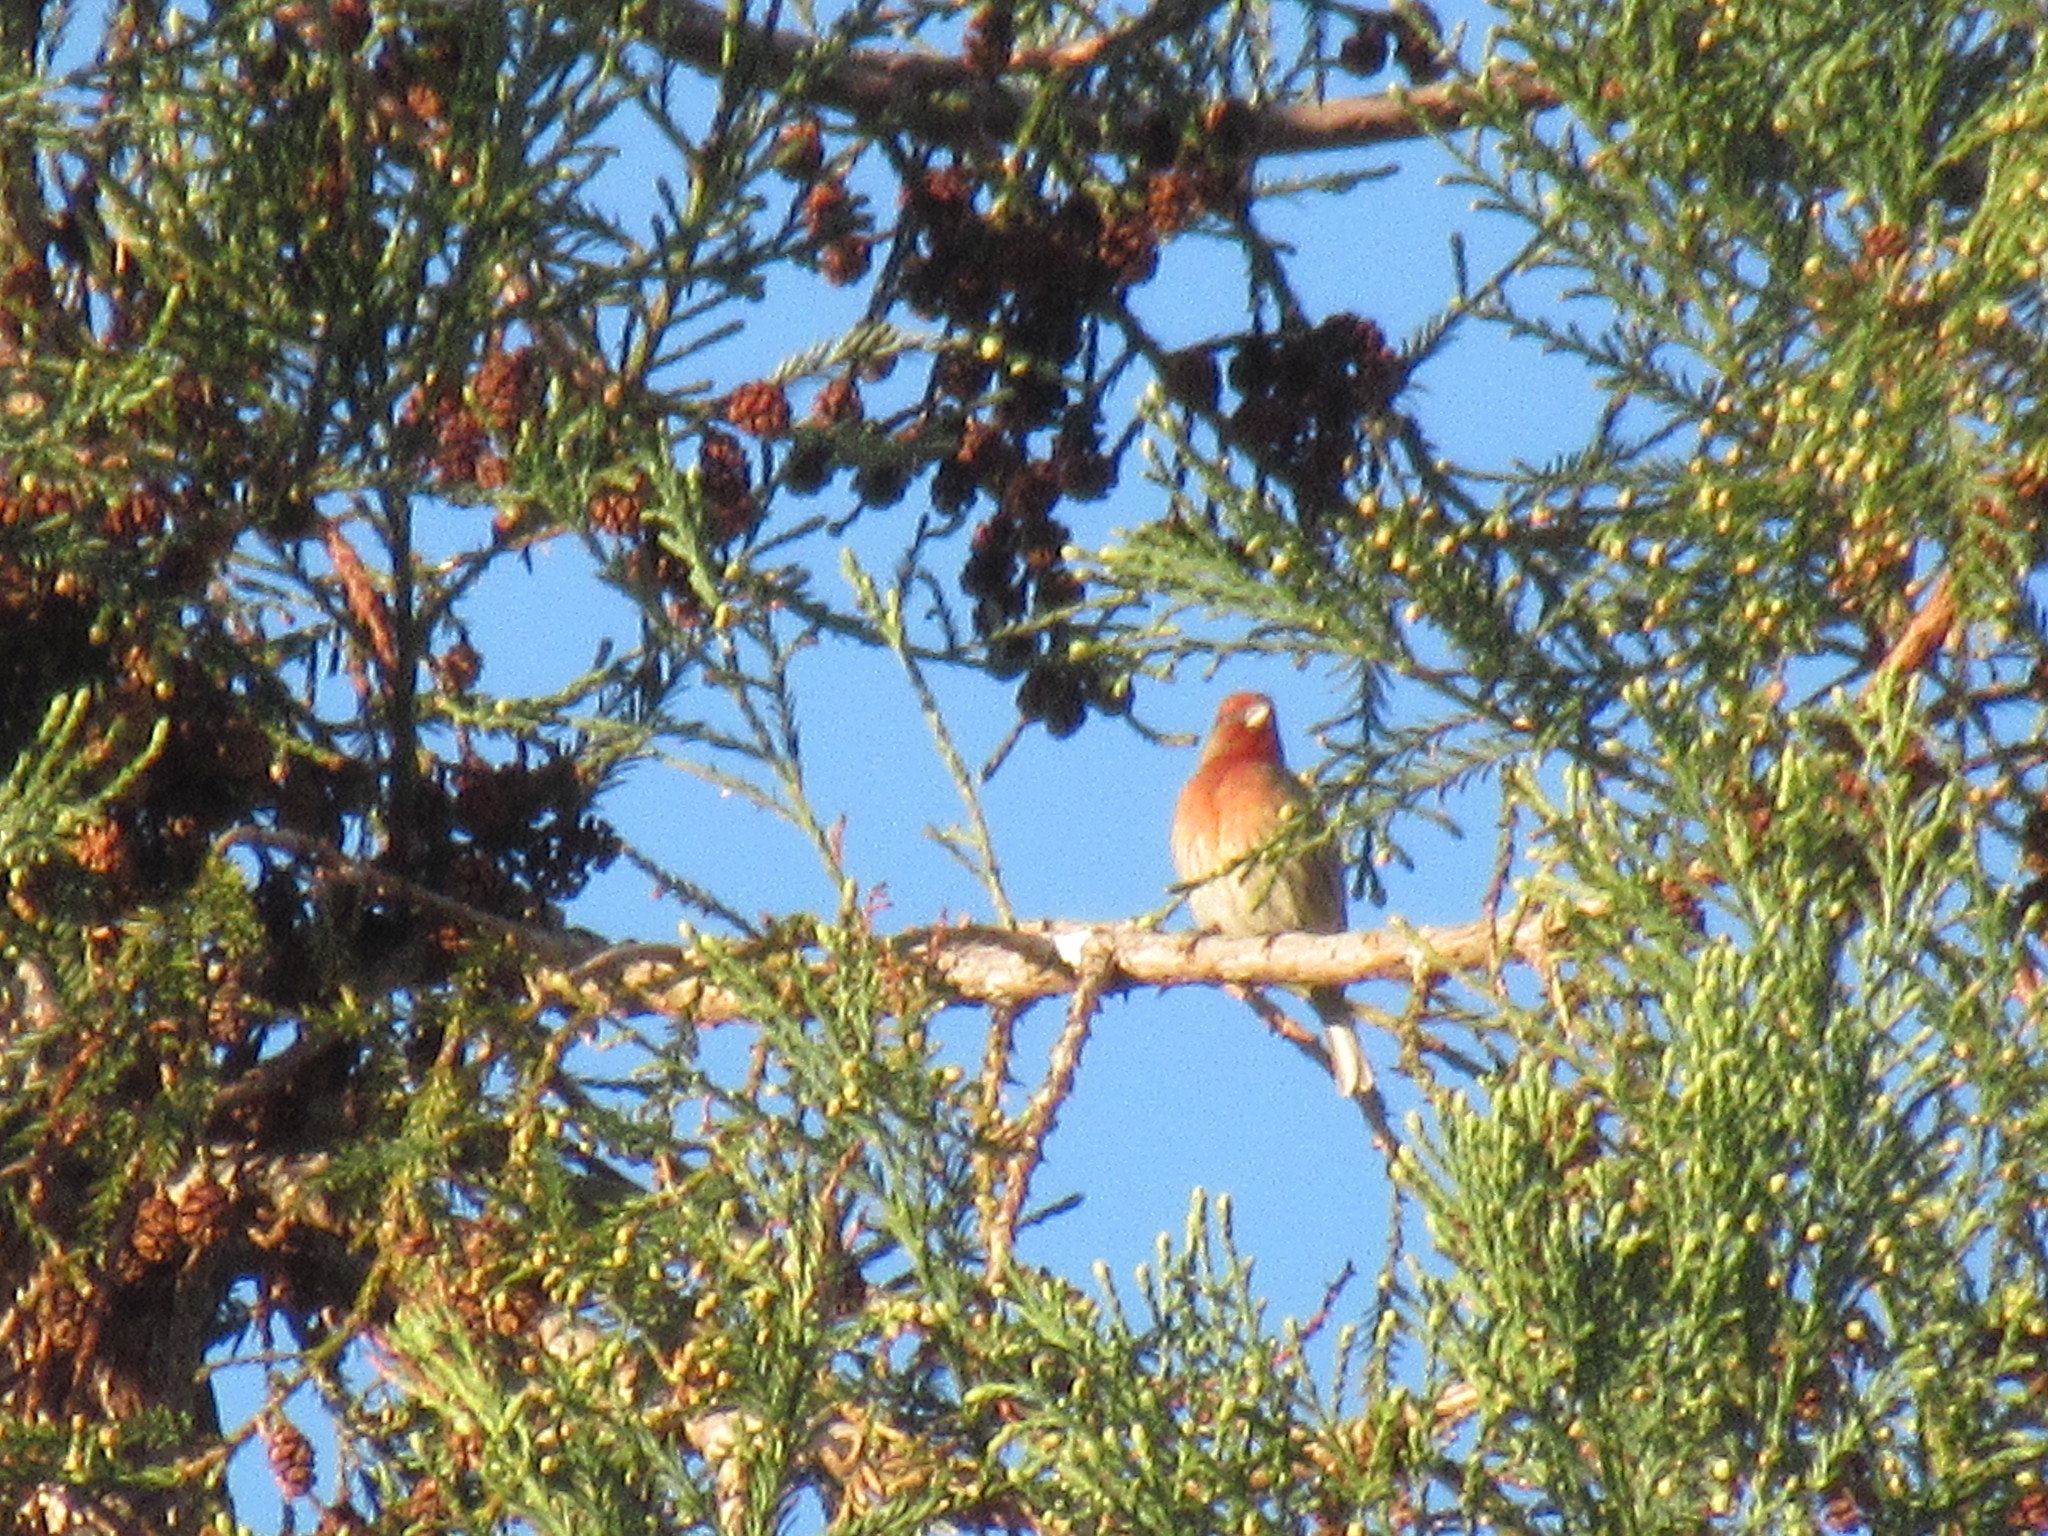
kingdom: Animalia
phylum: Chordata
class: Aves
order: Passeriformes
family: Fringillidae
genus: Haemorhous
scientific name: Haemorhous mexicanus
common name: House finch
